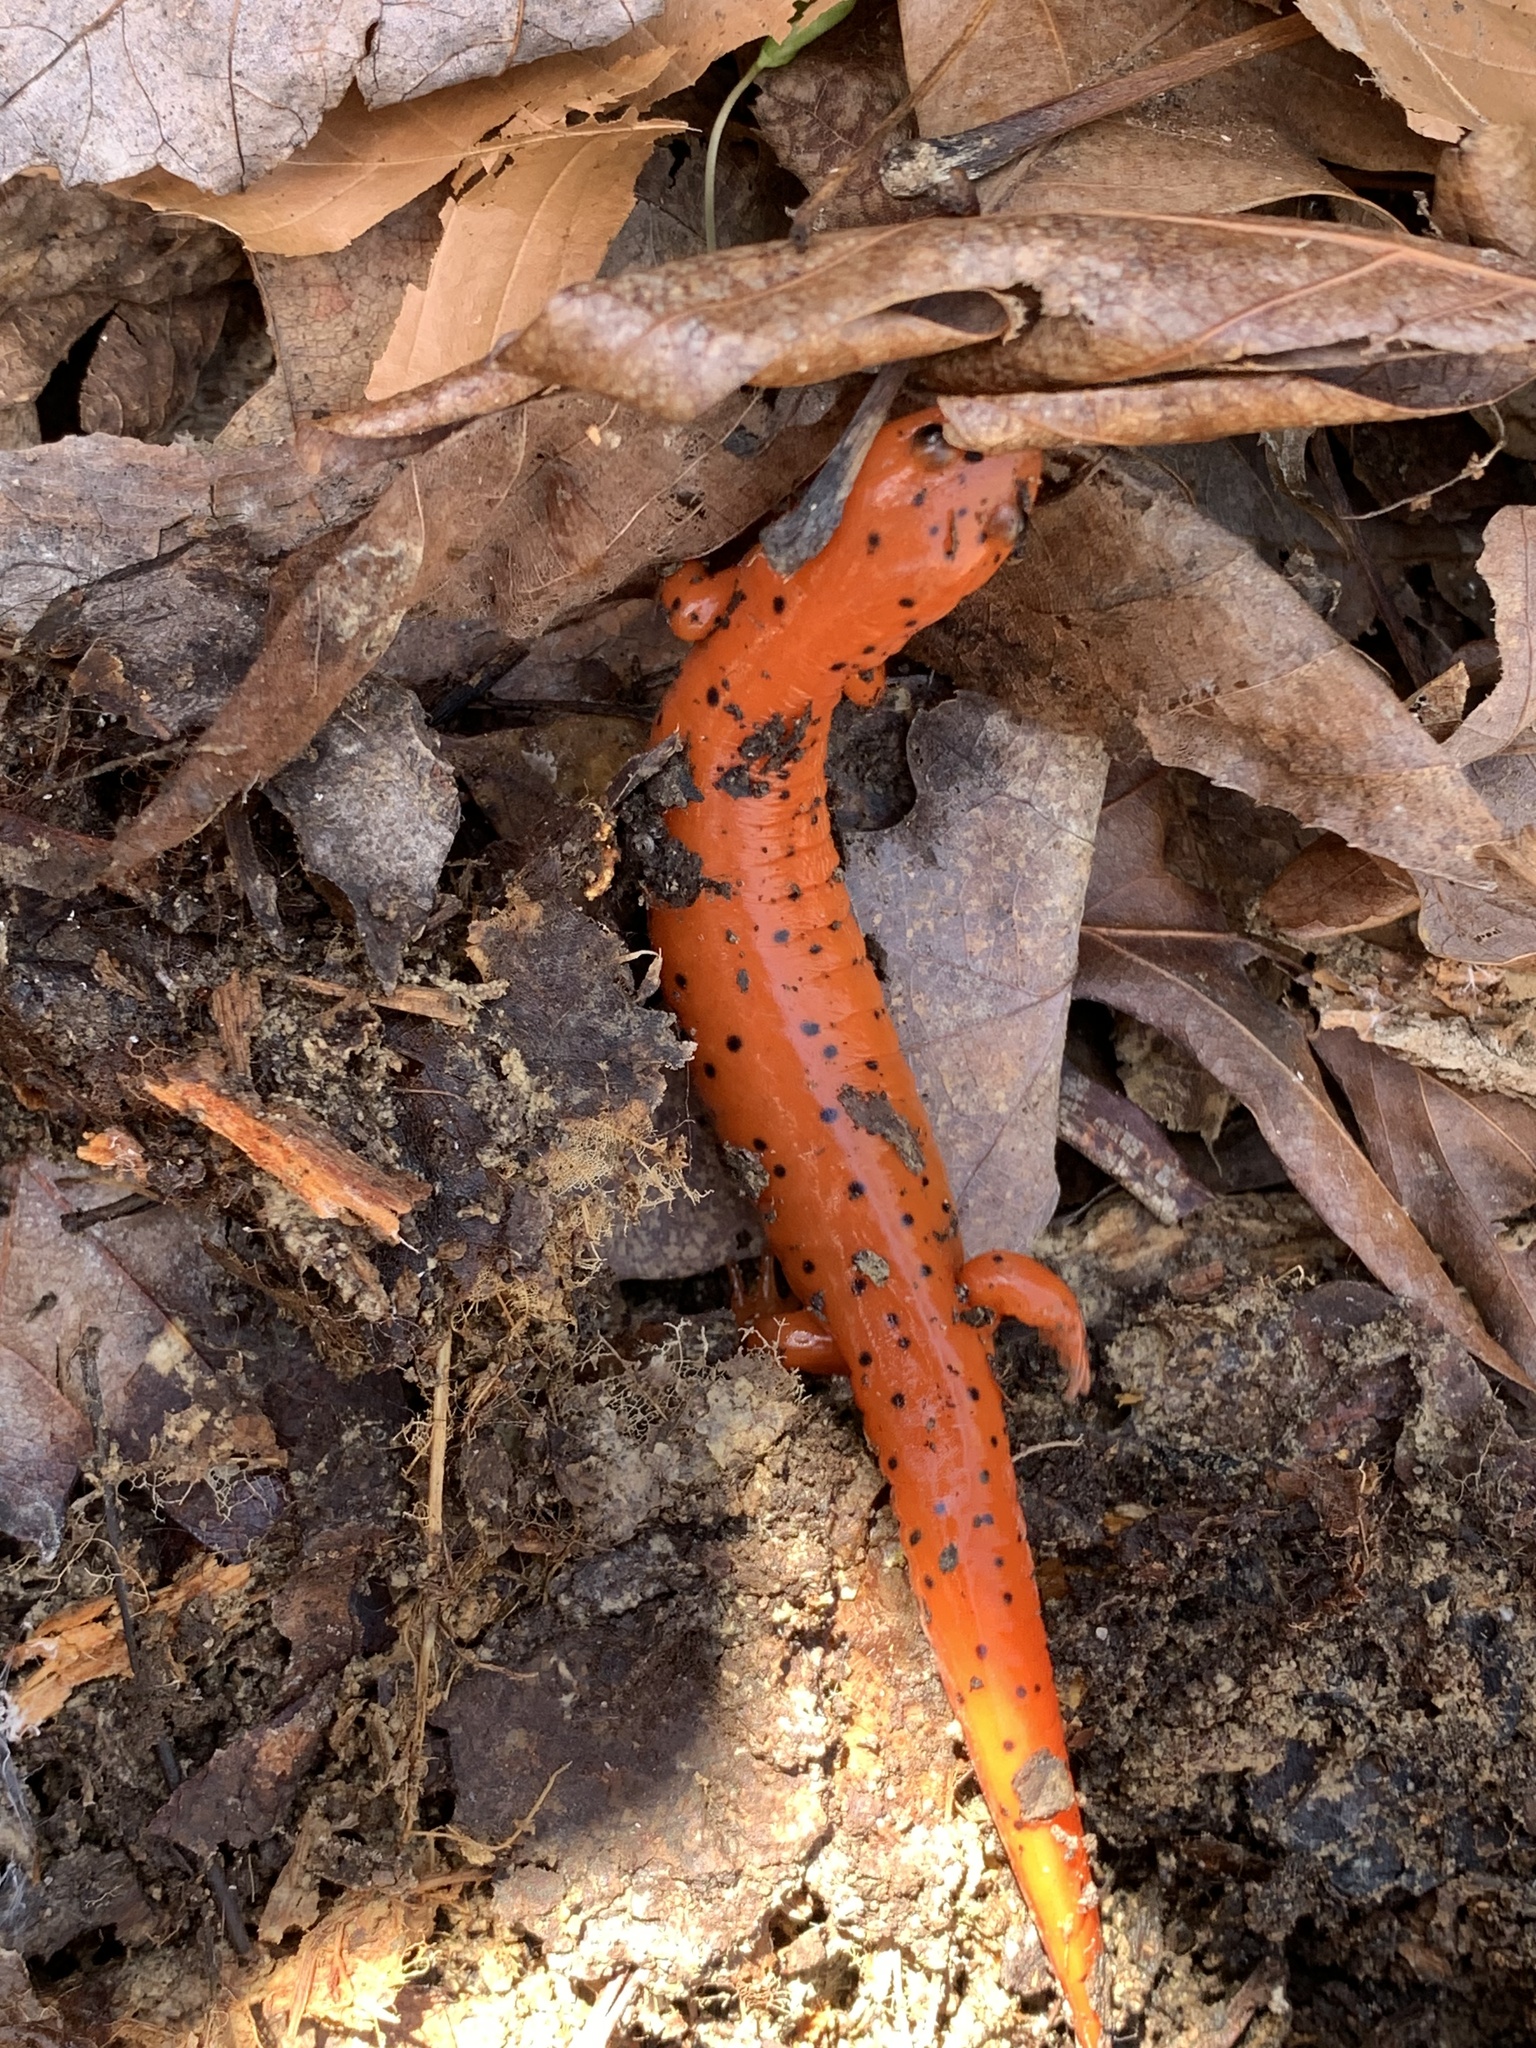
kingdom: Animalia
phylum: Chordata
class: Amphibia
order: Caudata
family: Plethodontidae
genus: Pseudotriton
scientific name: Pseudotriton diastictus
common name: Midland mud salamander
